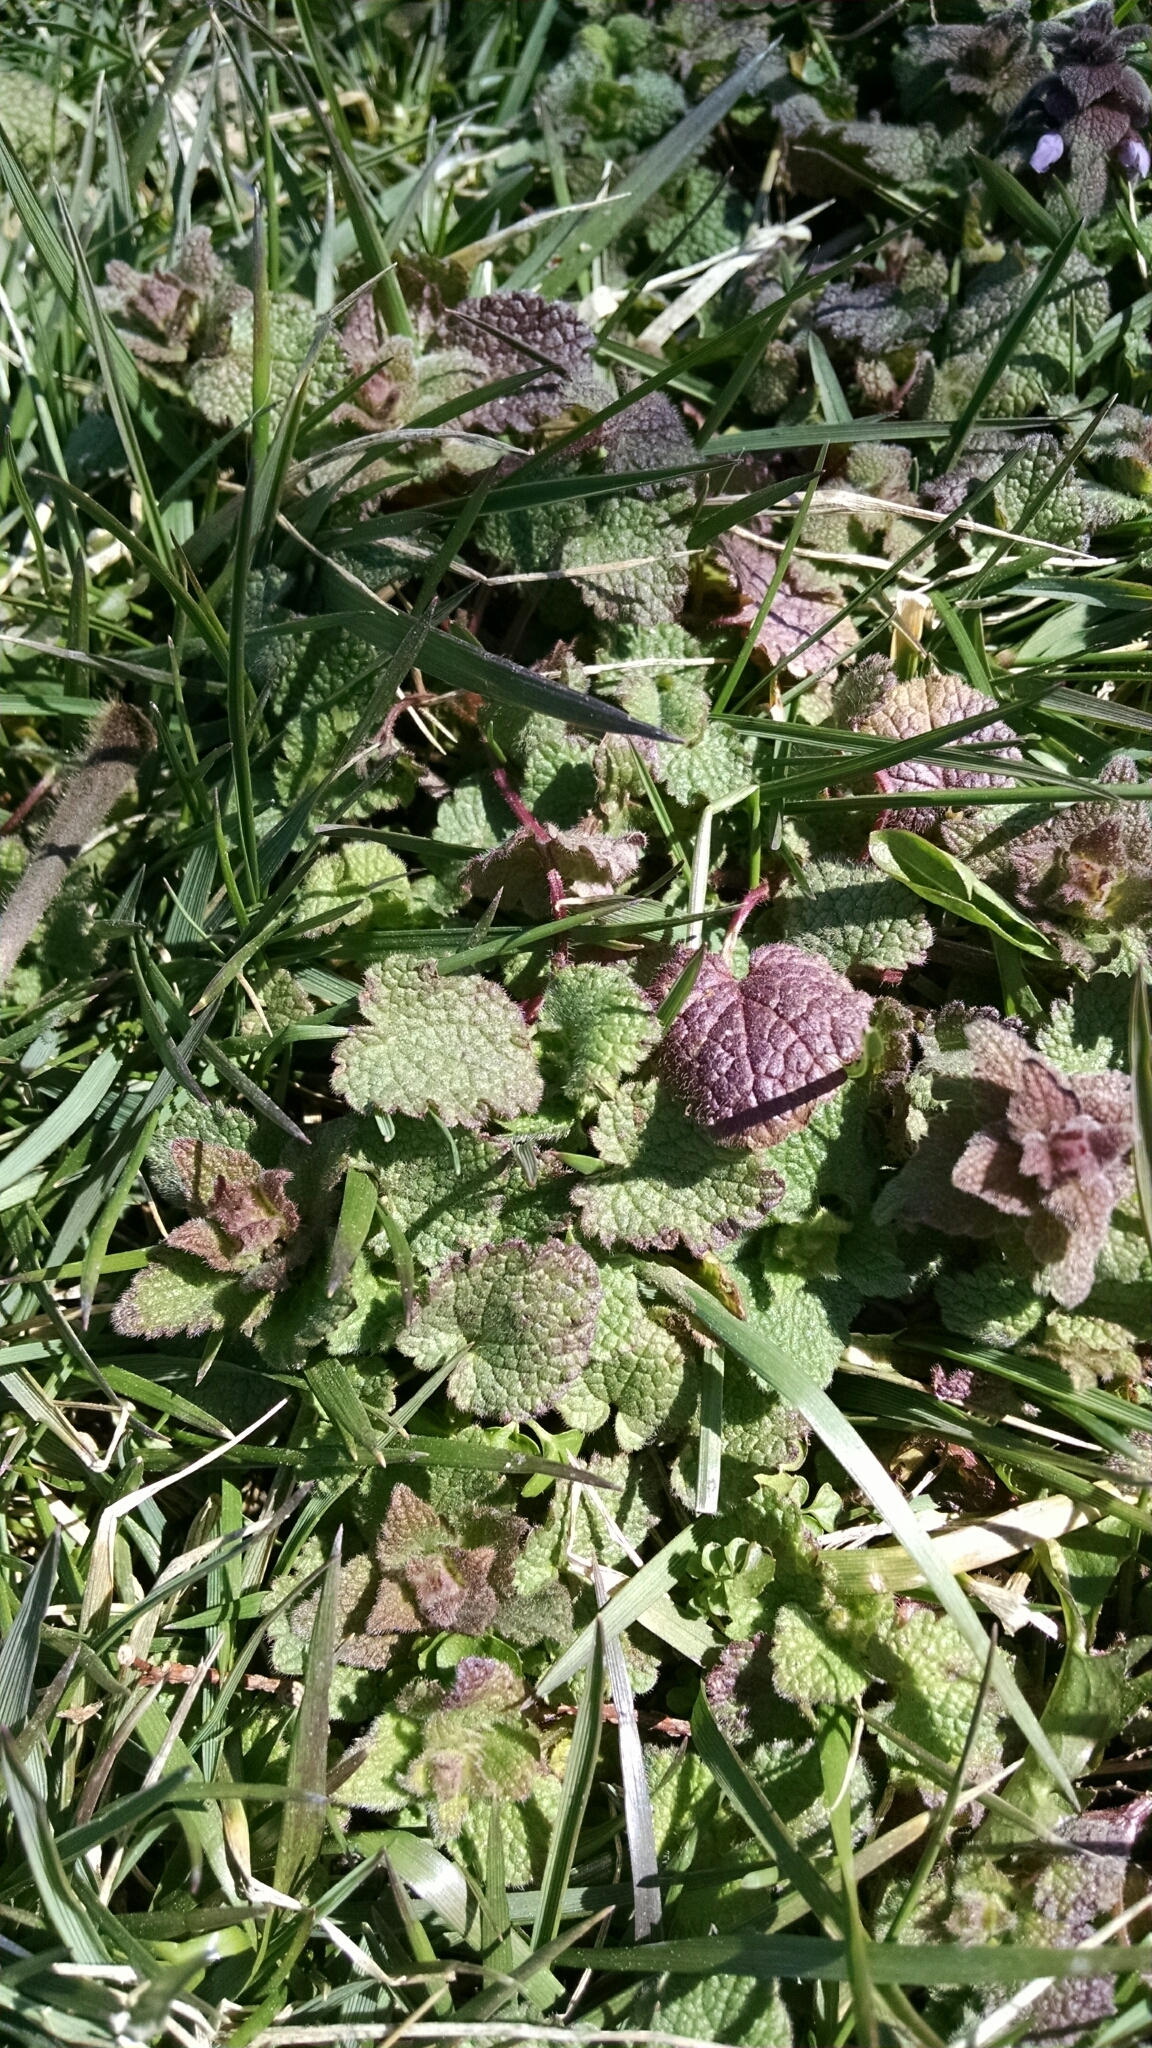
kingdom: Plantae
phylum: Tracheophyta
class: Magnoliopsida
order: Lamiales
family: Lamiaceae
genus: Lamium
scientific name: Lamium purpureum
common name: Red dead-nettle
